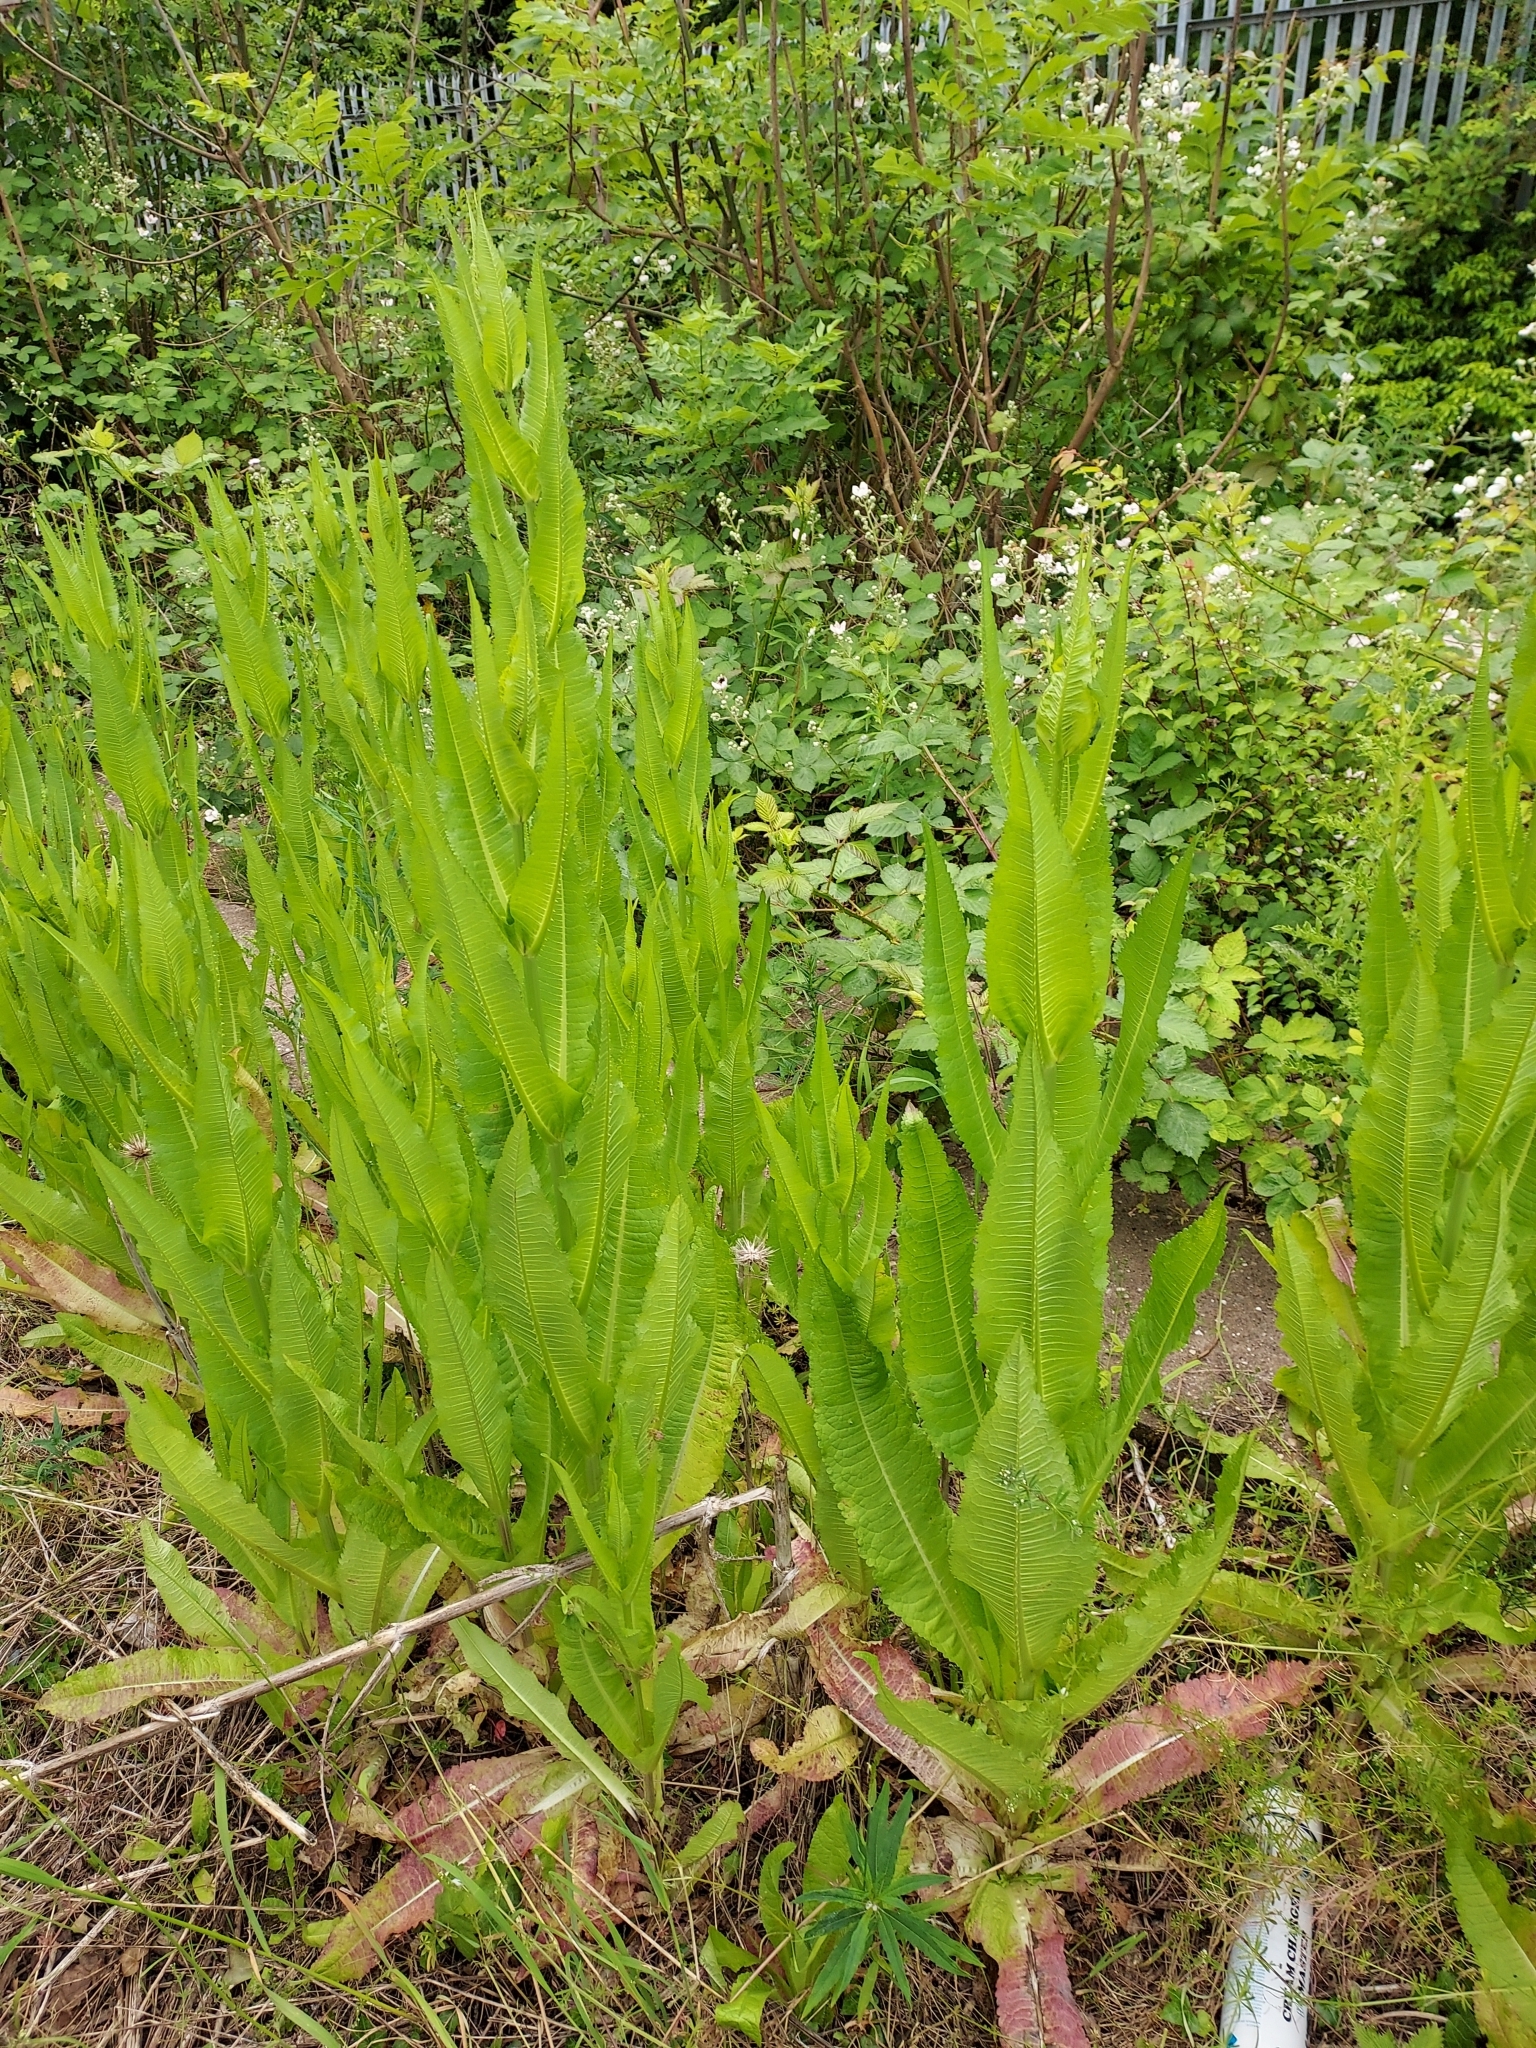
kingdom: Plantae
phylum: Tracheophyta
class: Magnoliopsida
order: Dipsacales
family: Caprifoliaceae
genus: Dipsacus
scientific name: Dipsacus fullonum
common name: Teasel
